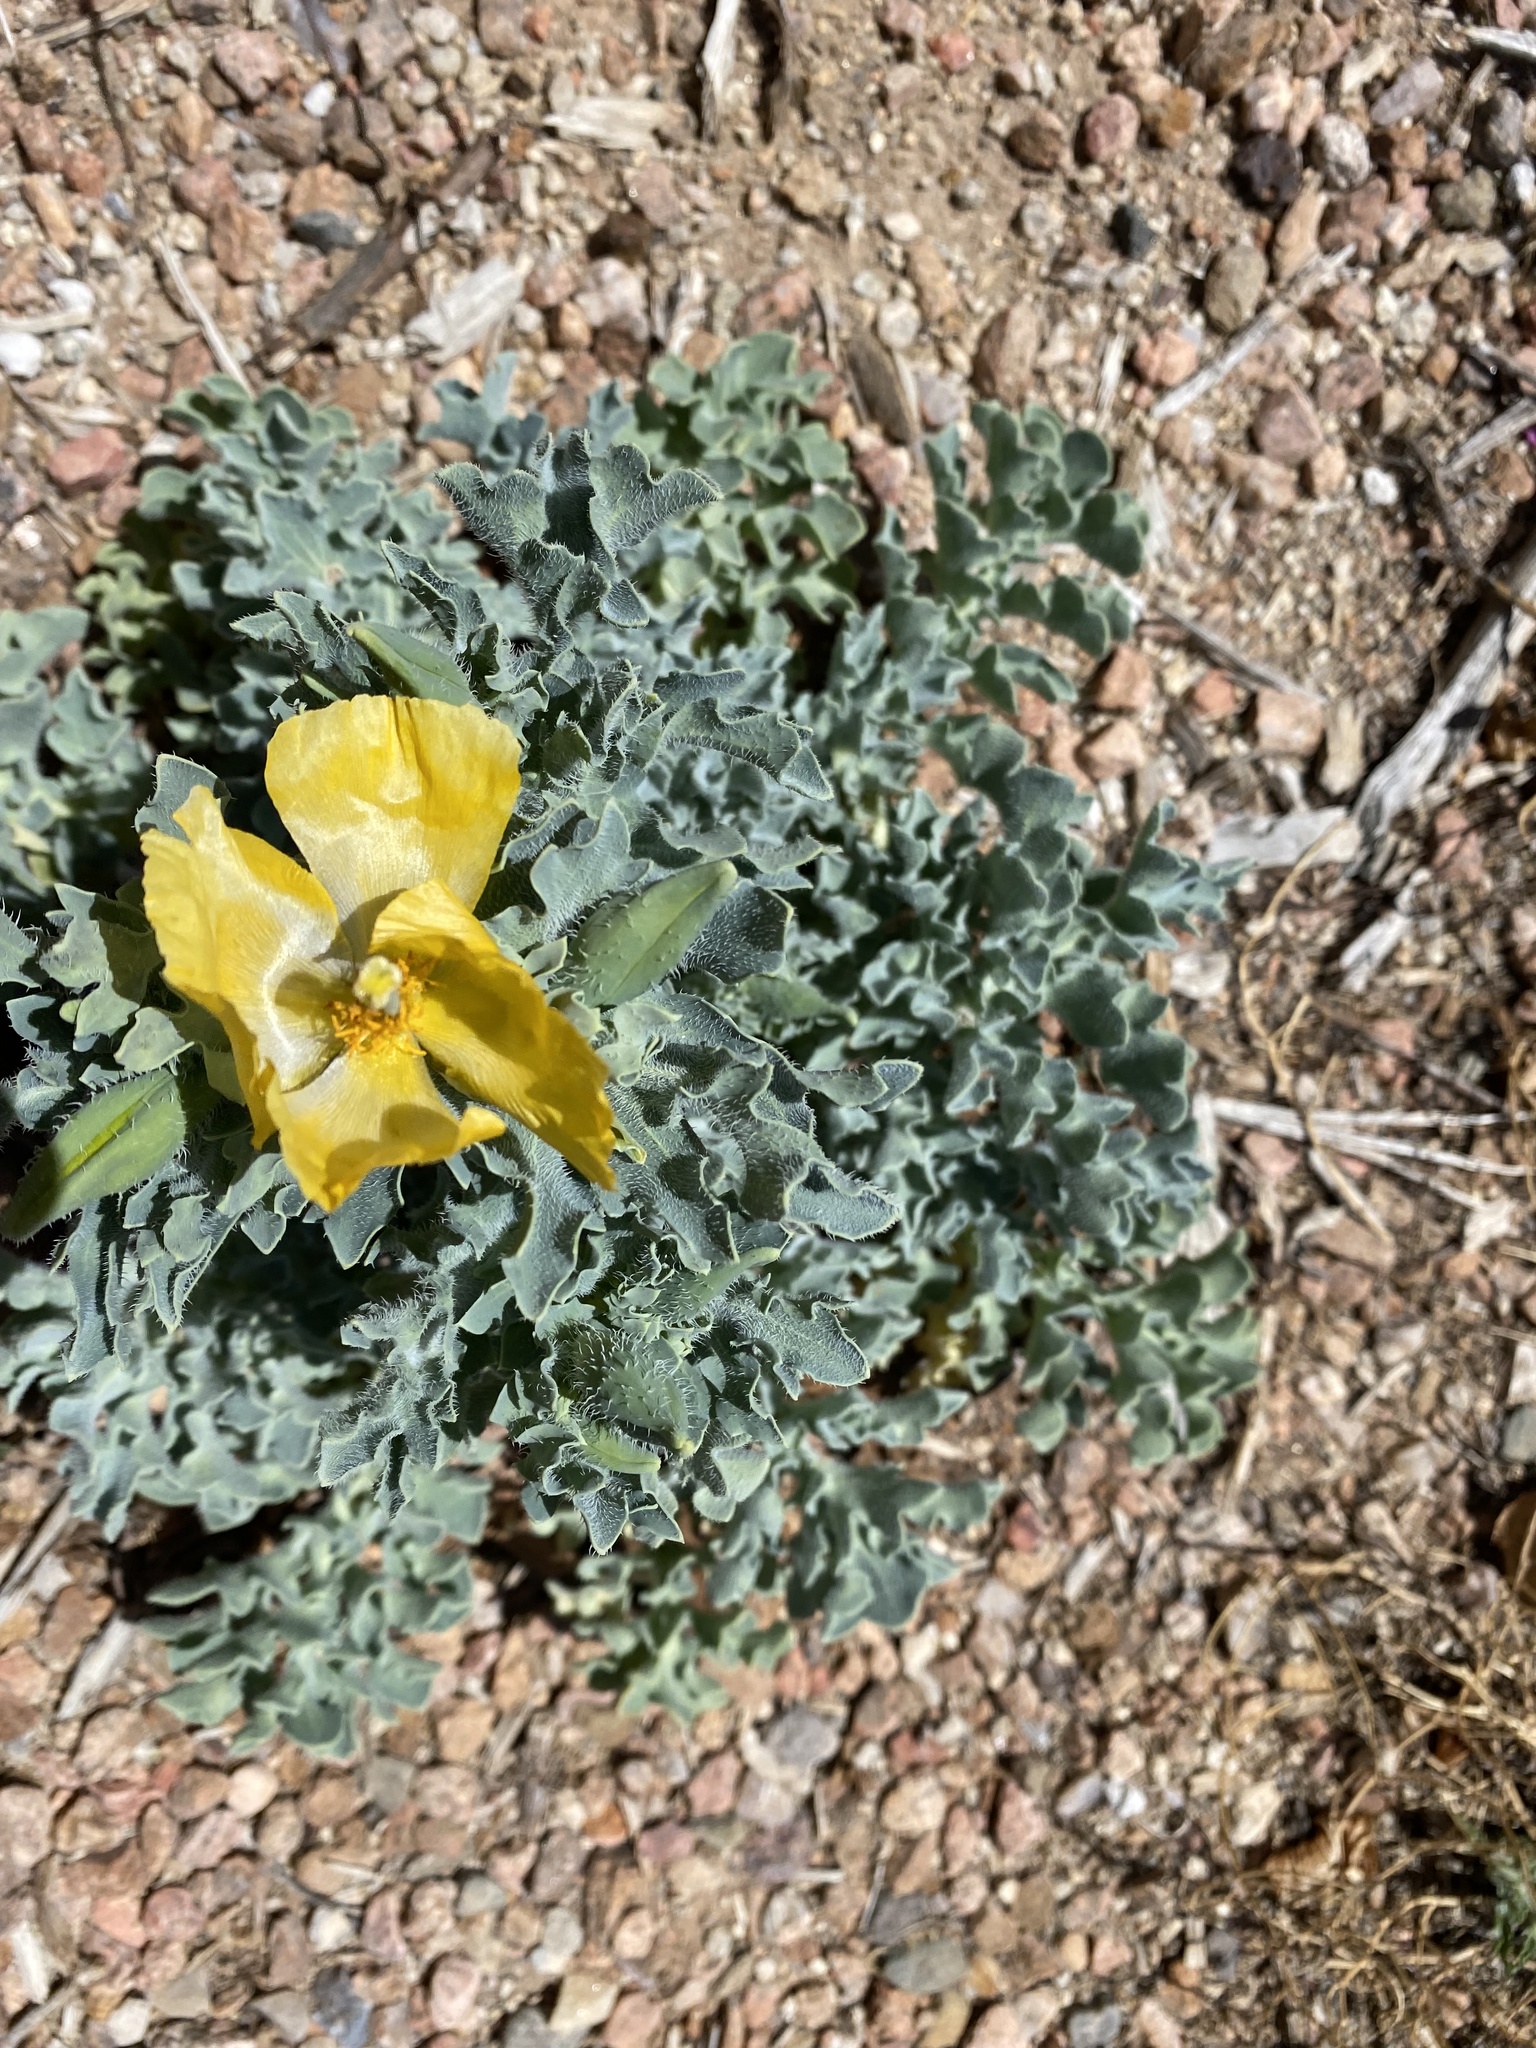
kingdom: Plantae
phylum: Tracheophyta
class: Magnoliopsida
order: Ranunculales
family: Papaveraceae
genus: Glaucium
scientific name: Glaucium flavum
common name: Yellow horned-poppy
